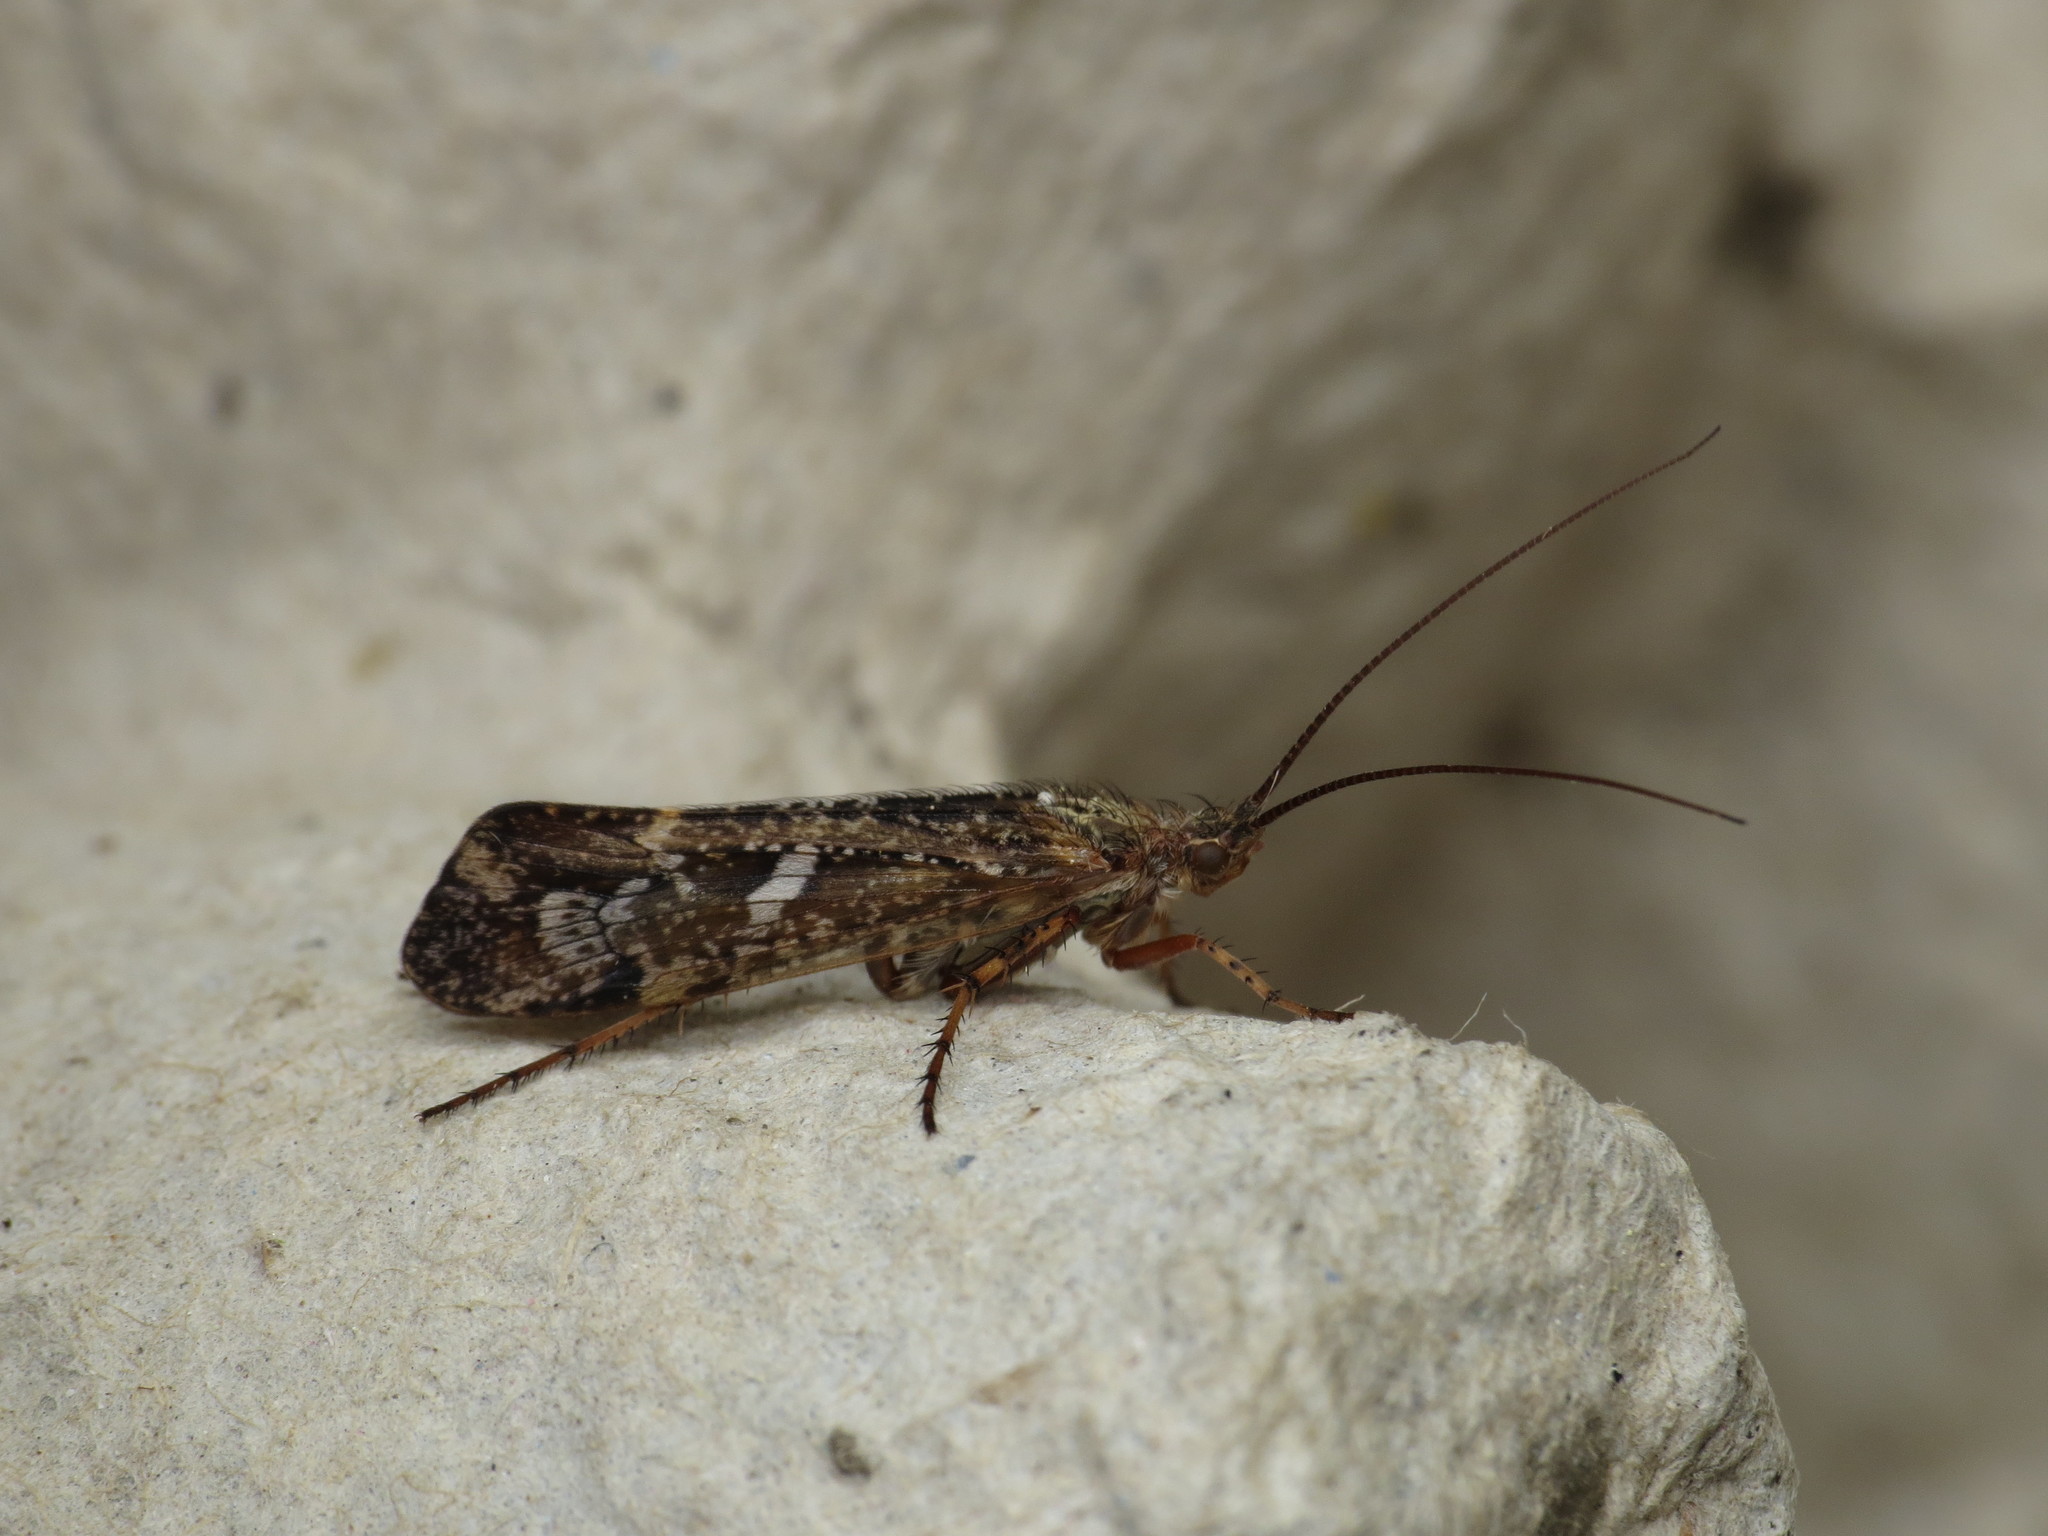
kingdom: Animalia
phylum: Arthropoda
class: Insecta
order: Trichoptera
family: Limnephilidae
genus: Limnephilus
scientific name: Limnephilus griseus
